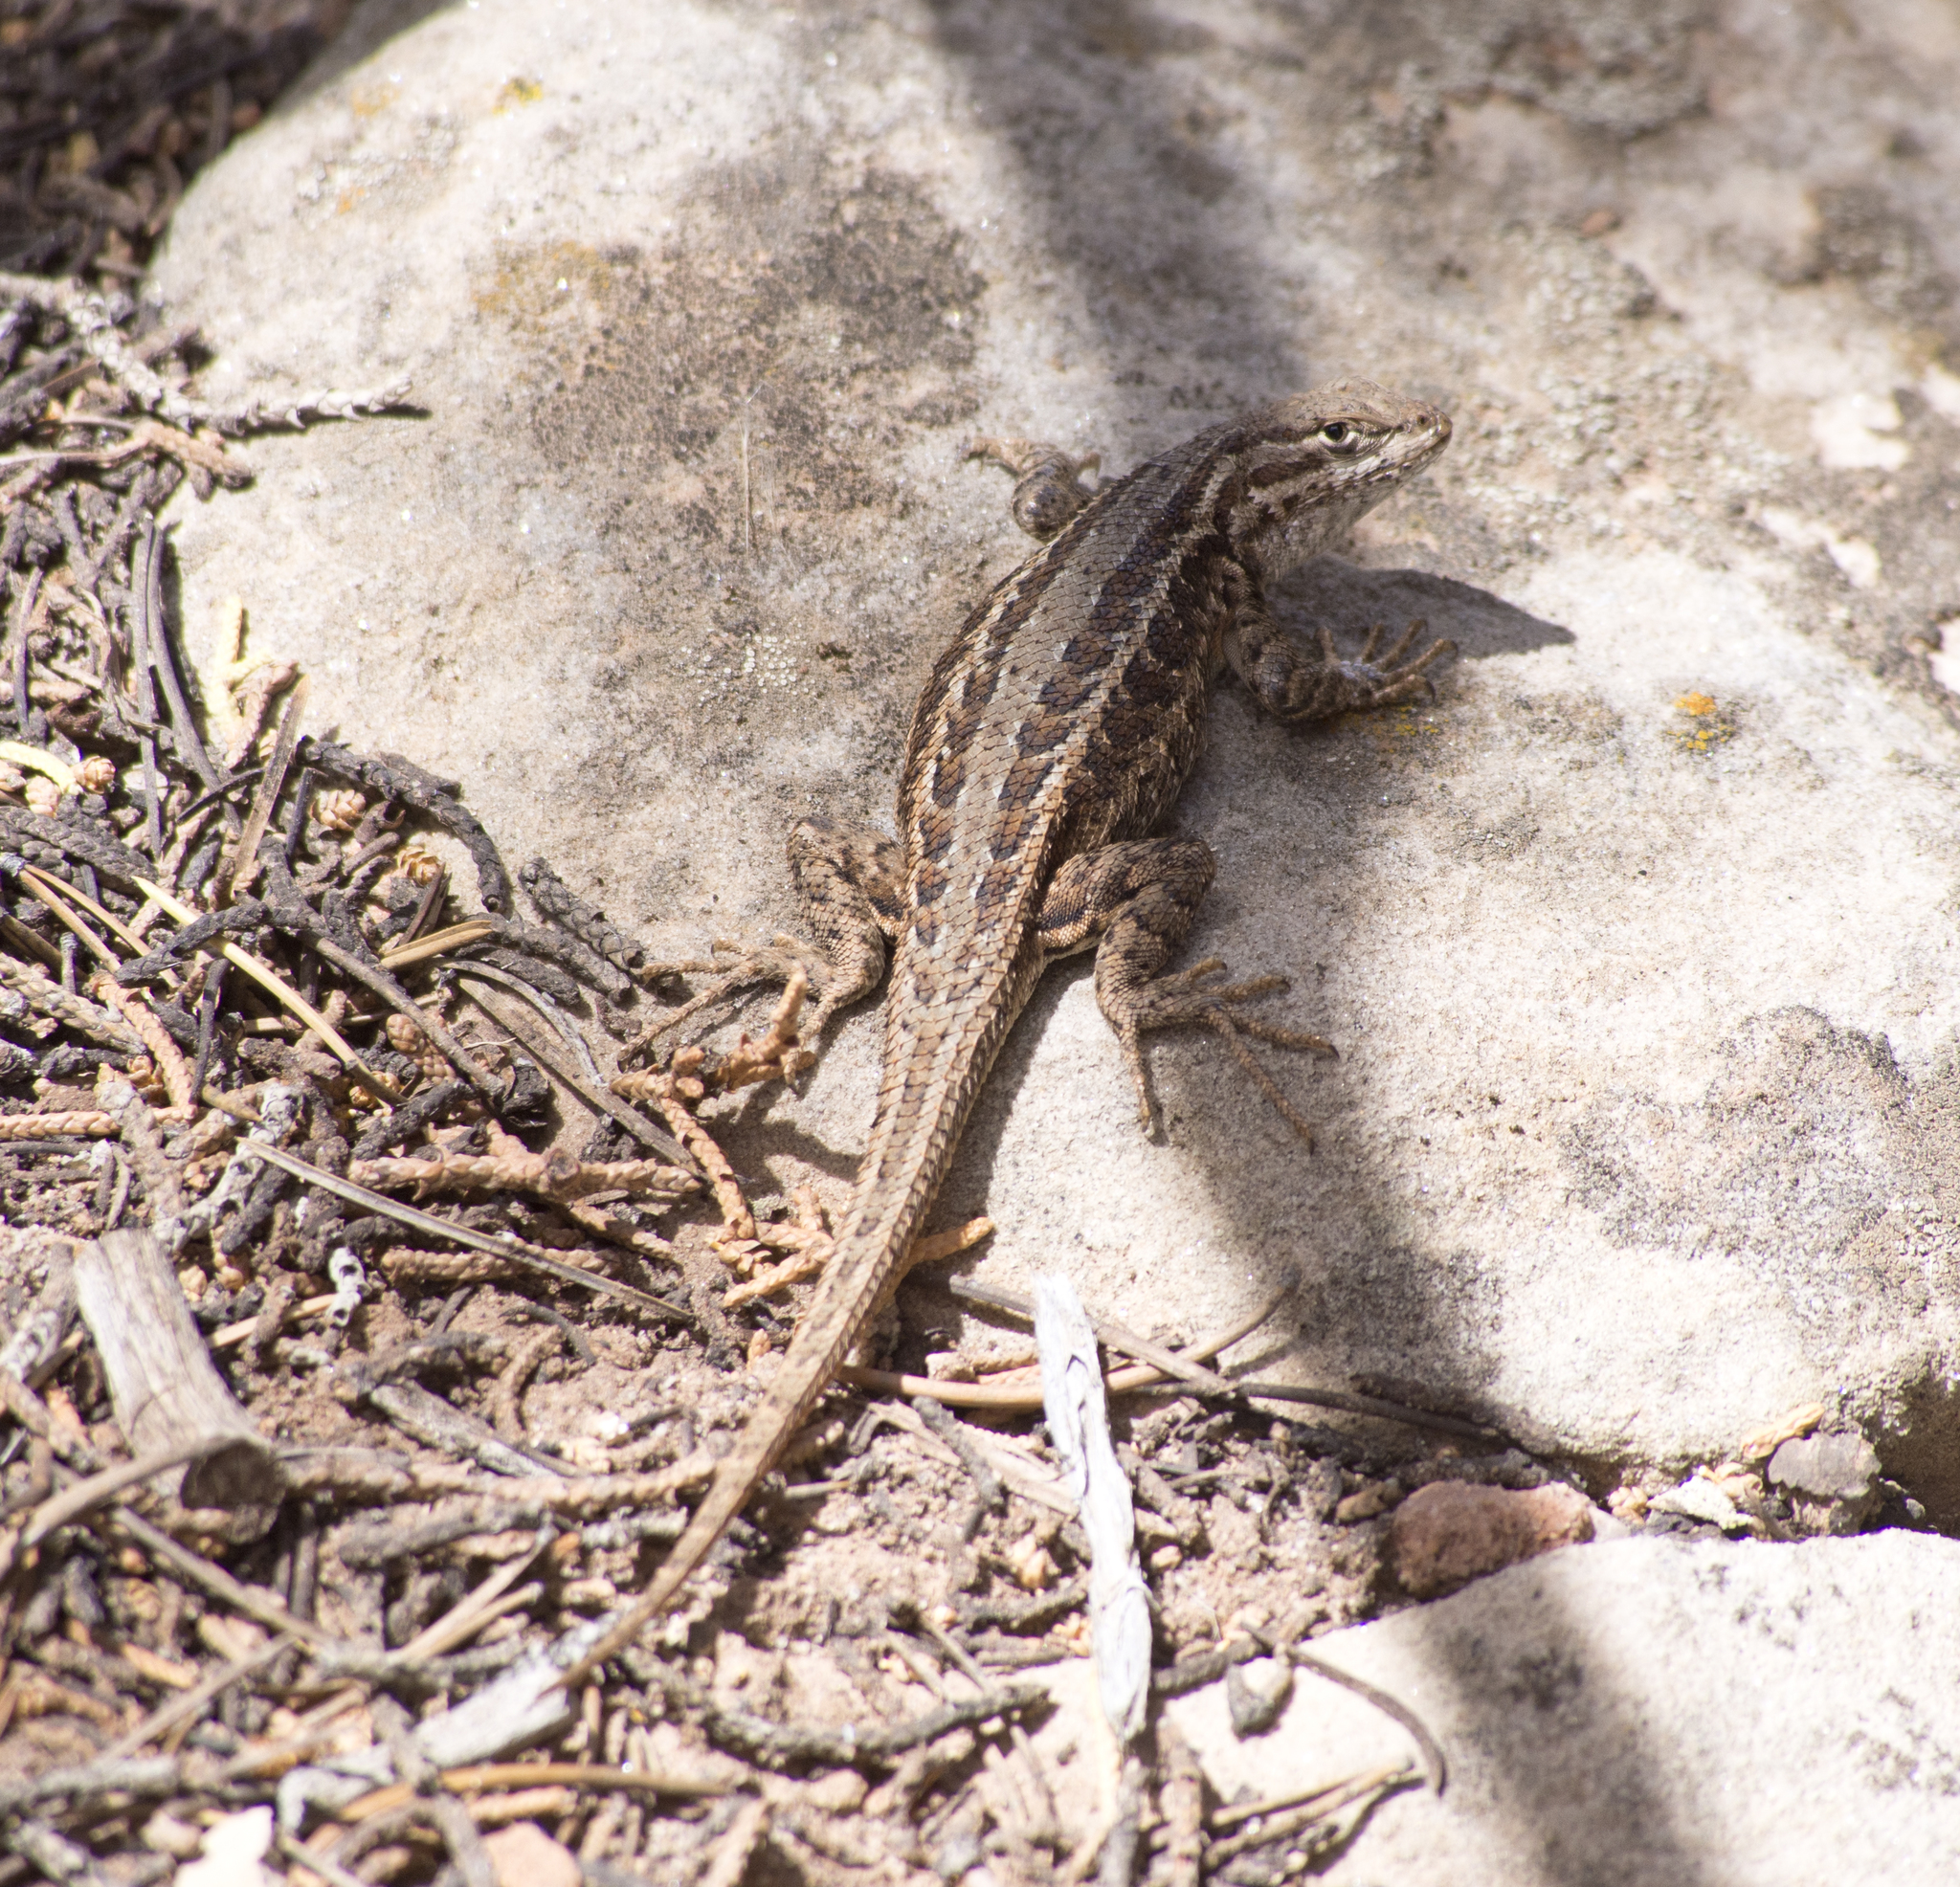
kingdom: Animalia
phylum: Chordata
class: Squamata
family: Phrynosomatidae
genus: Sceloporus
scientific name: Sceloporus graciosus
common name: Sagebrush lizard
